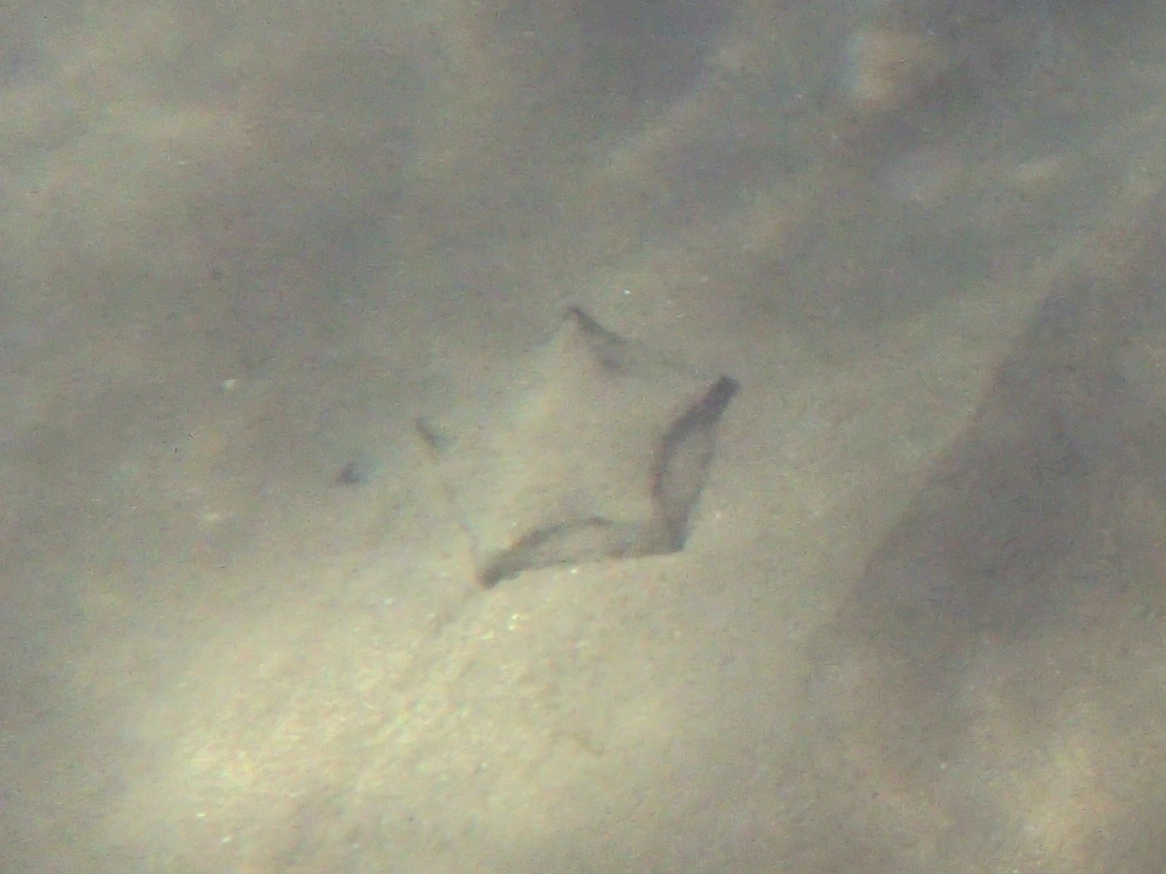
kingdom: Animalia
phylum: Echinodermata
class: Asteroidea
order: Valvatida
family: Asterinidae
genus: Patiriella
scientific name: Patiriella regularis
